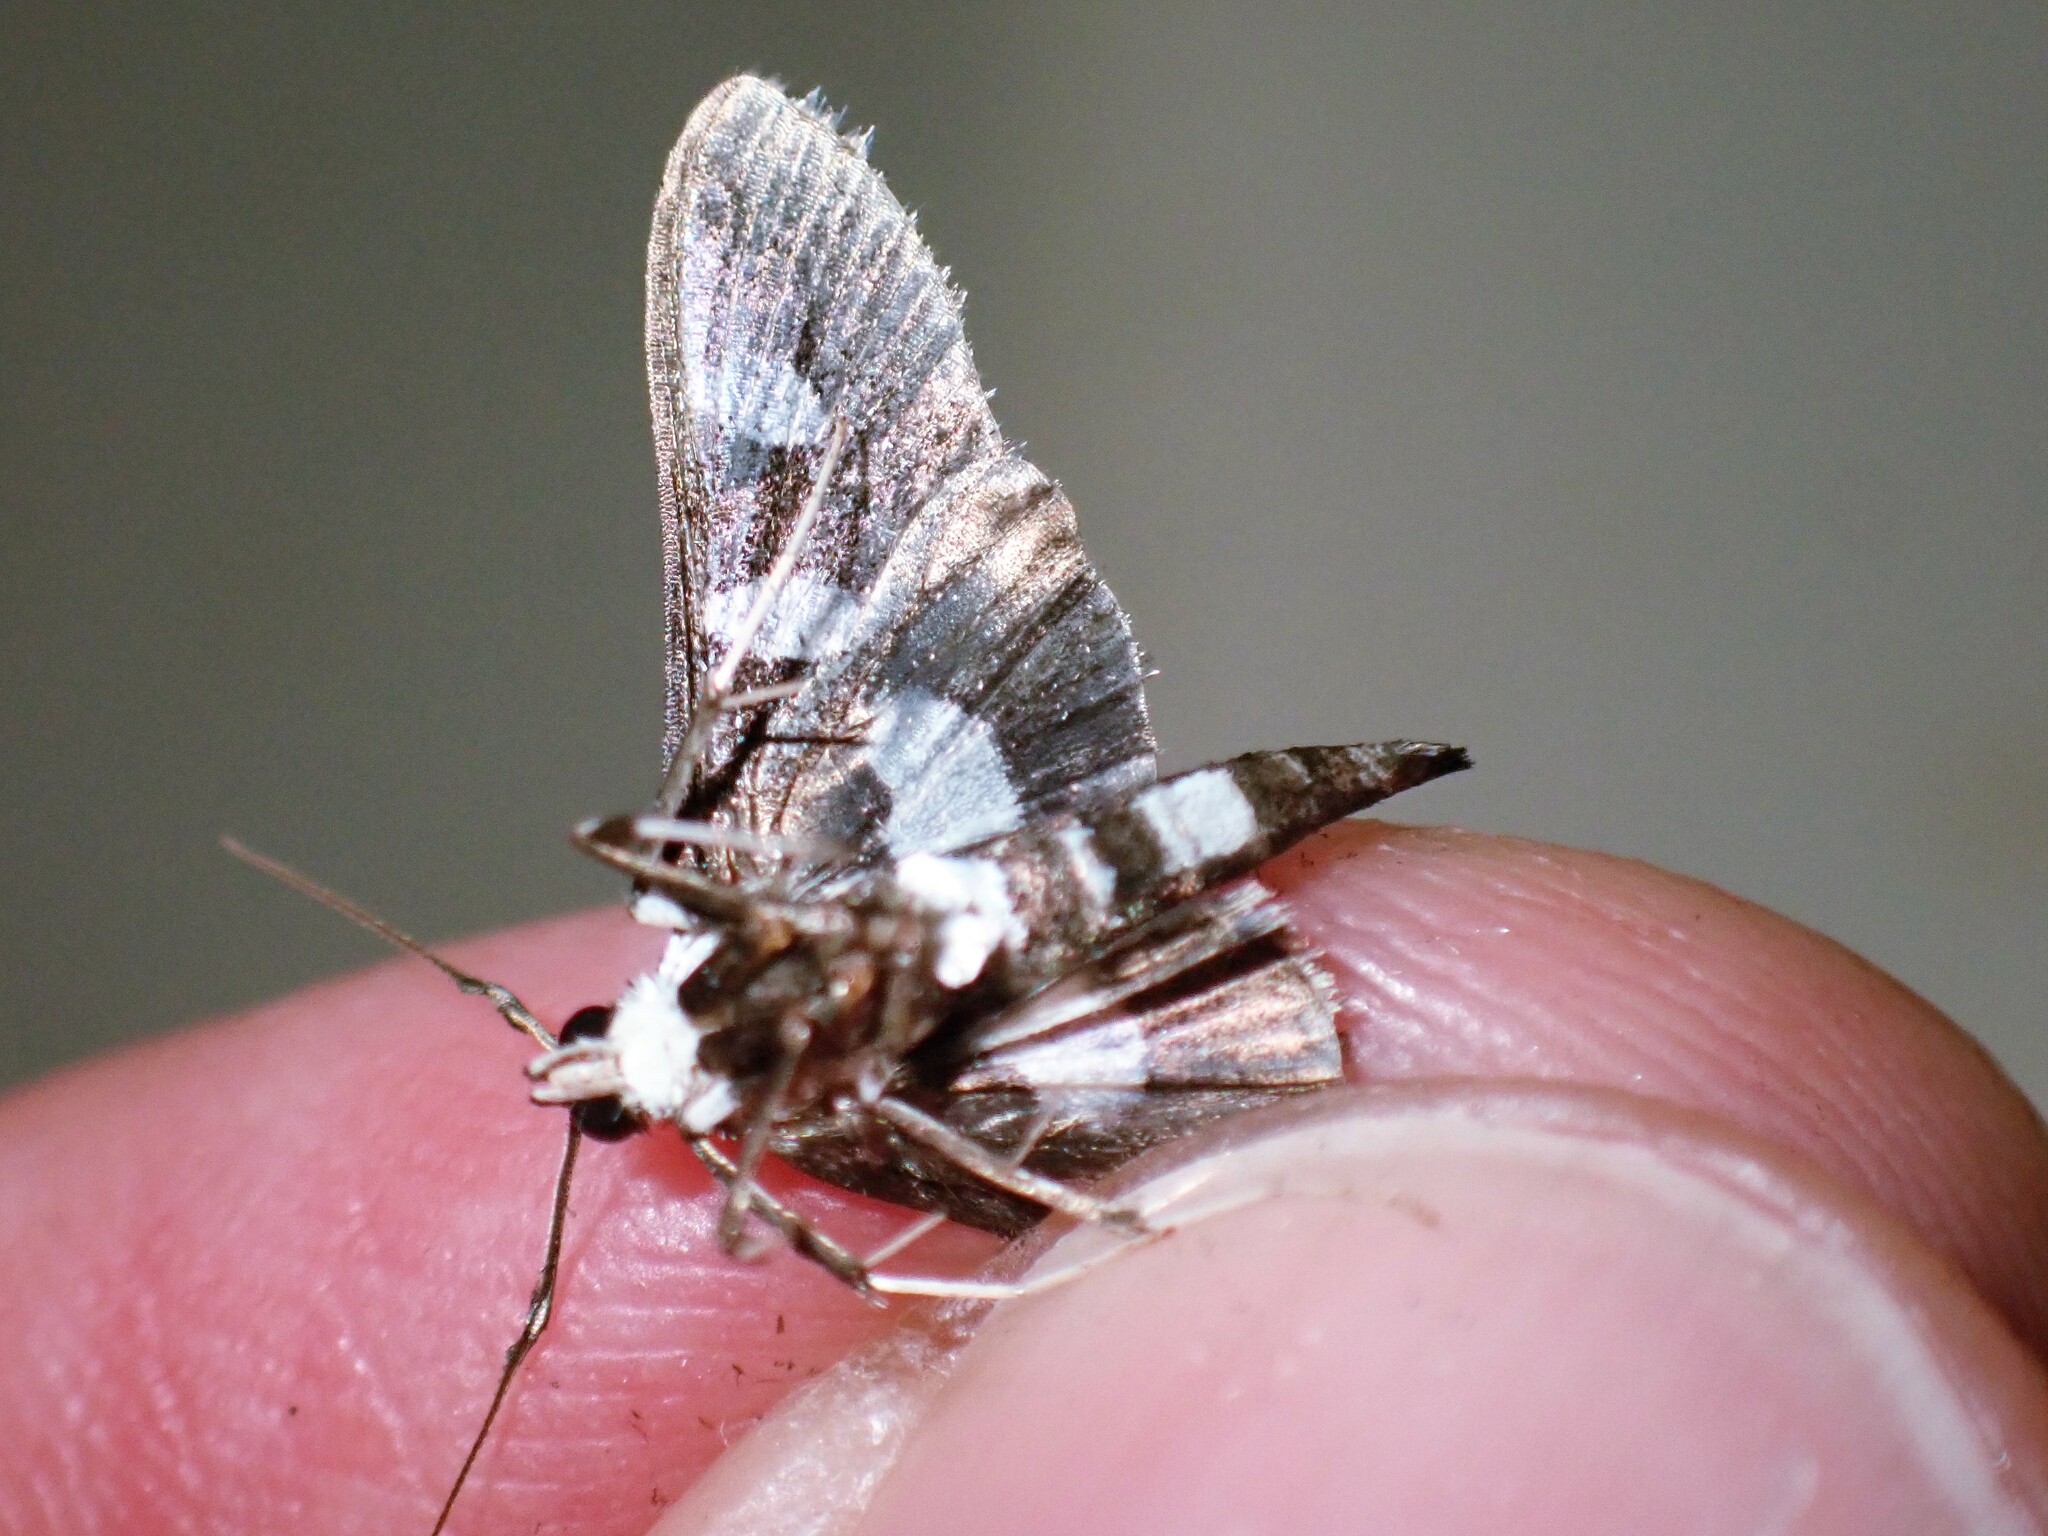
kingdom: Animalia
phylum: Arthropoda
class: Insecta
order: Lepidoptera
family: Crambidae
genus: Desmia
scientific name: Desmia funeralis
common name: Grape leaf folder moth
